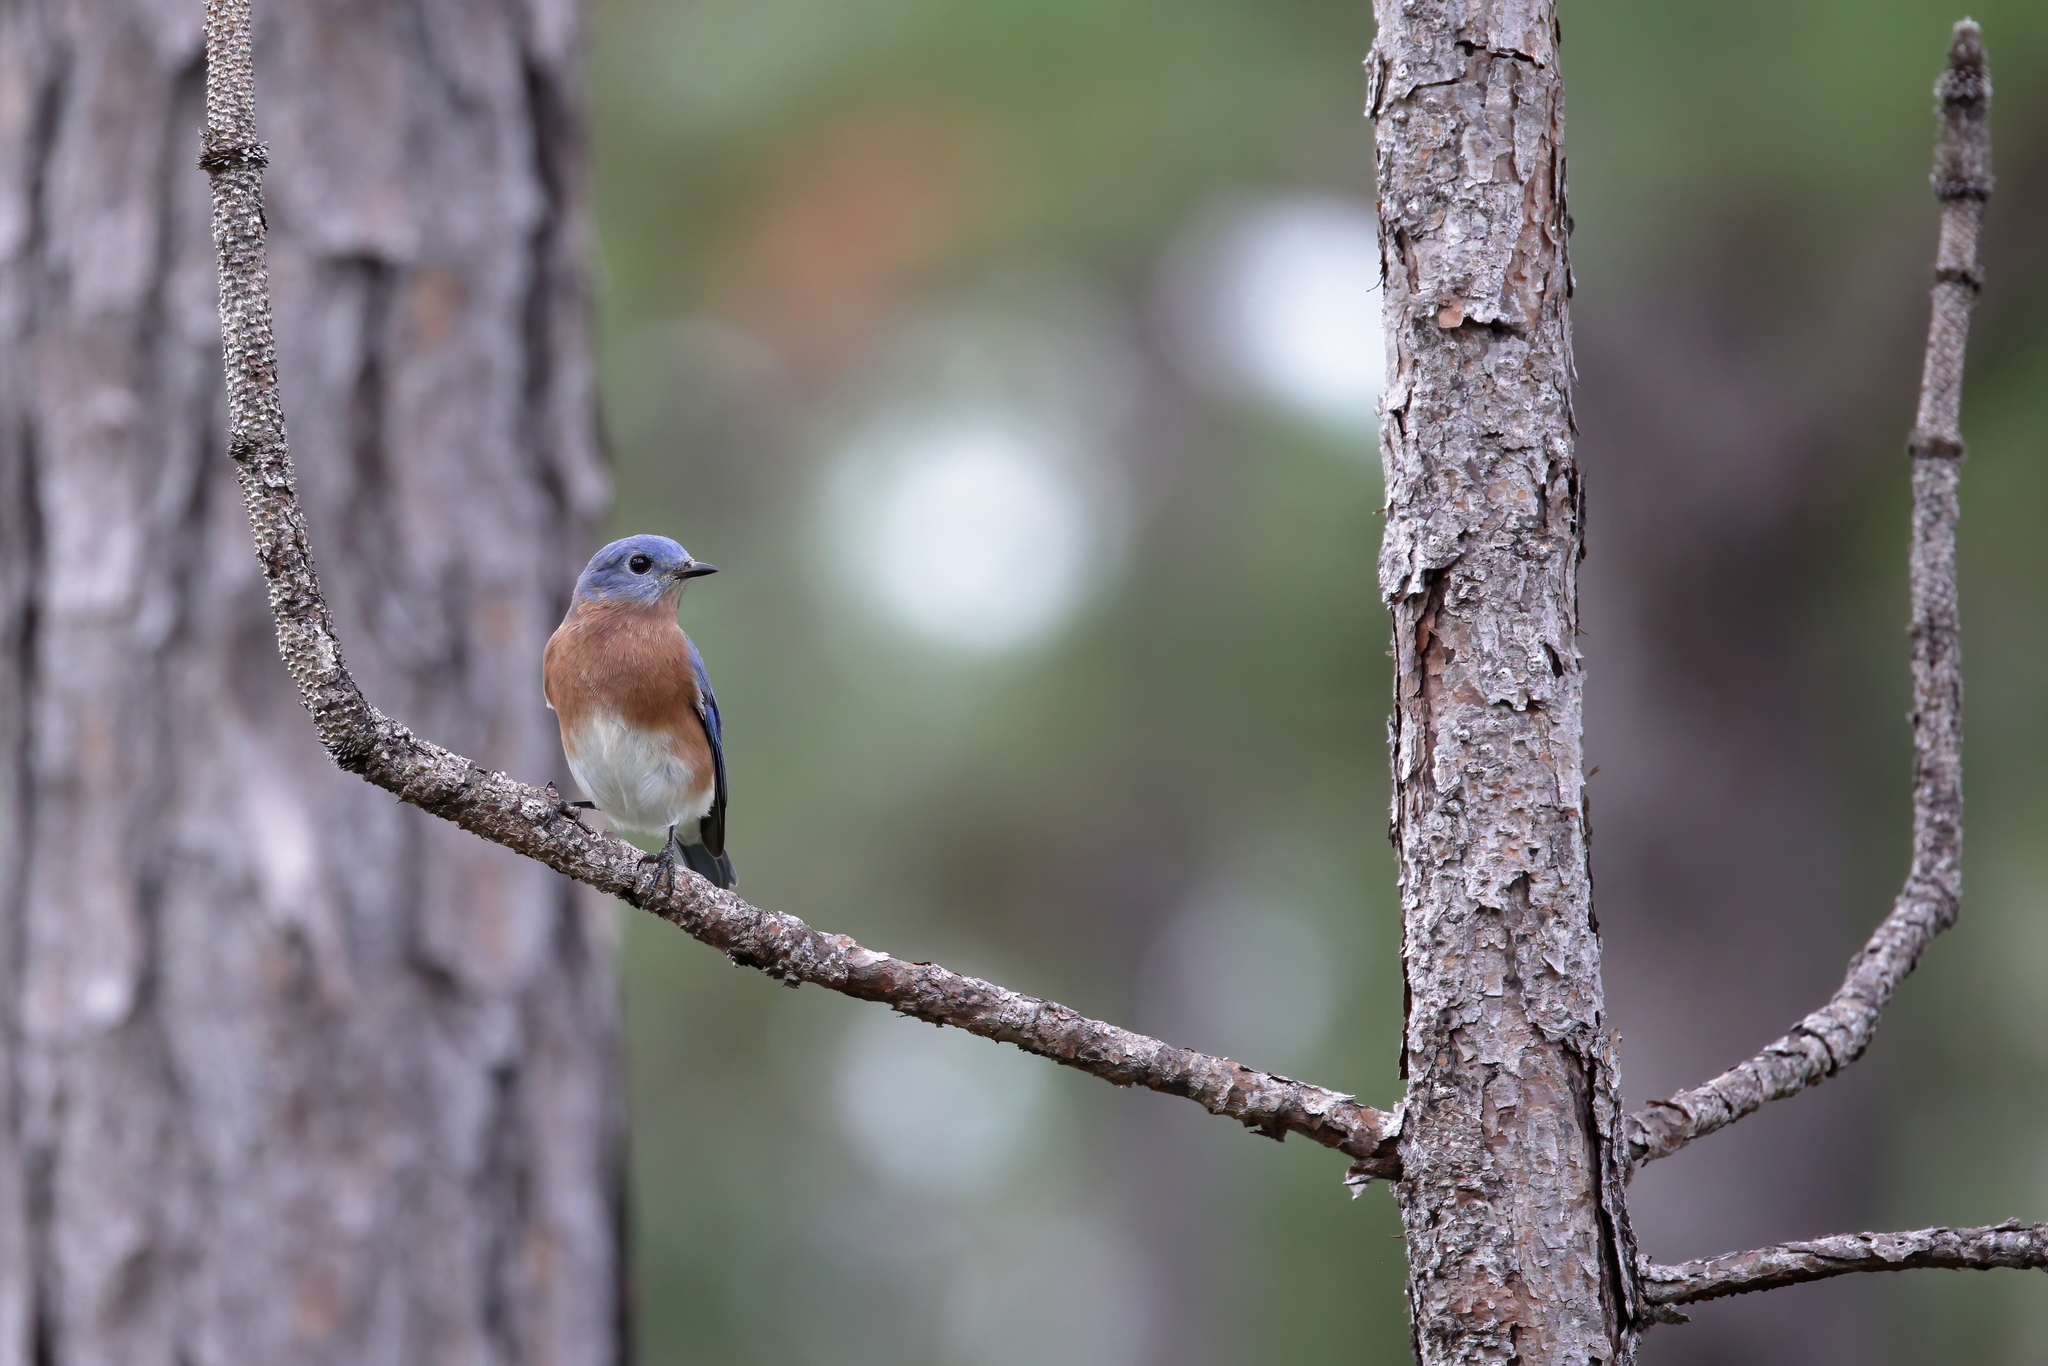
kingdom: Animalia
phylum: Chordata
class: Aves
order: Passeriformes
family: Turdidae
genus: Sialia
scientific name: Sialia sialis
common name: Eastern bluebird
